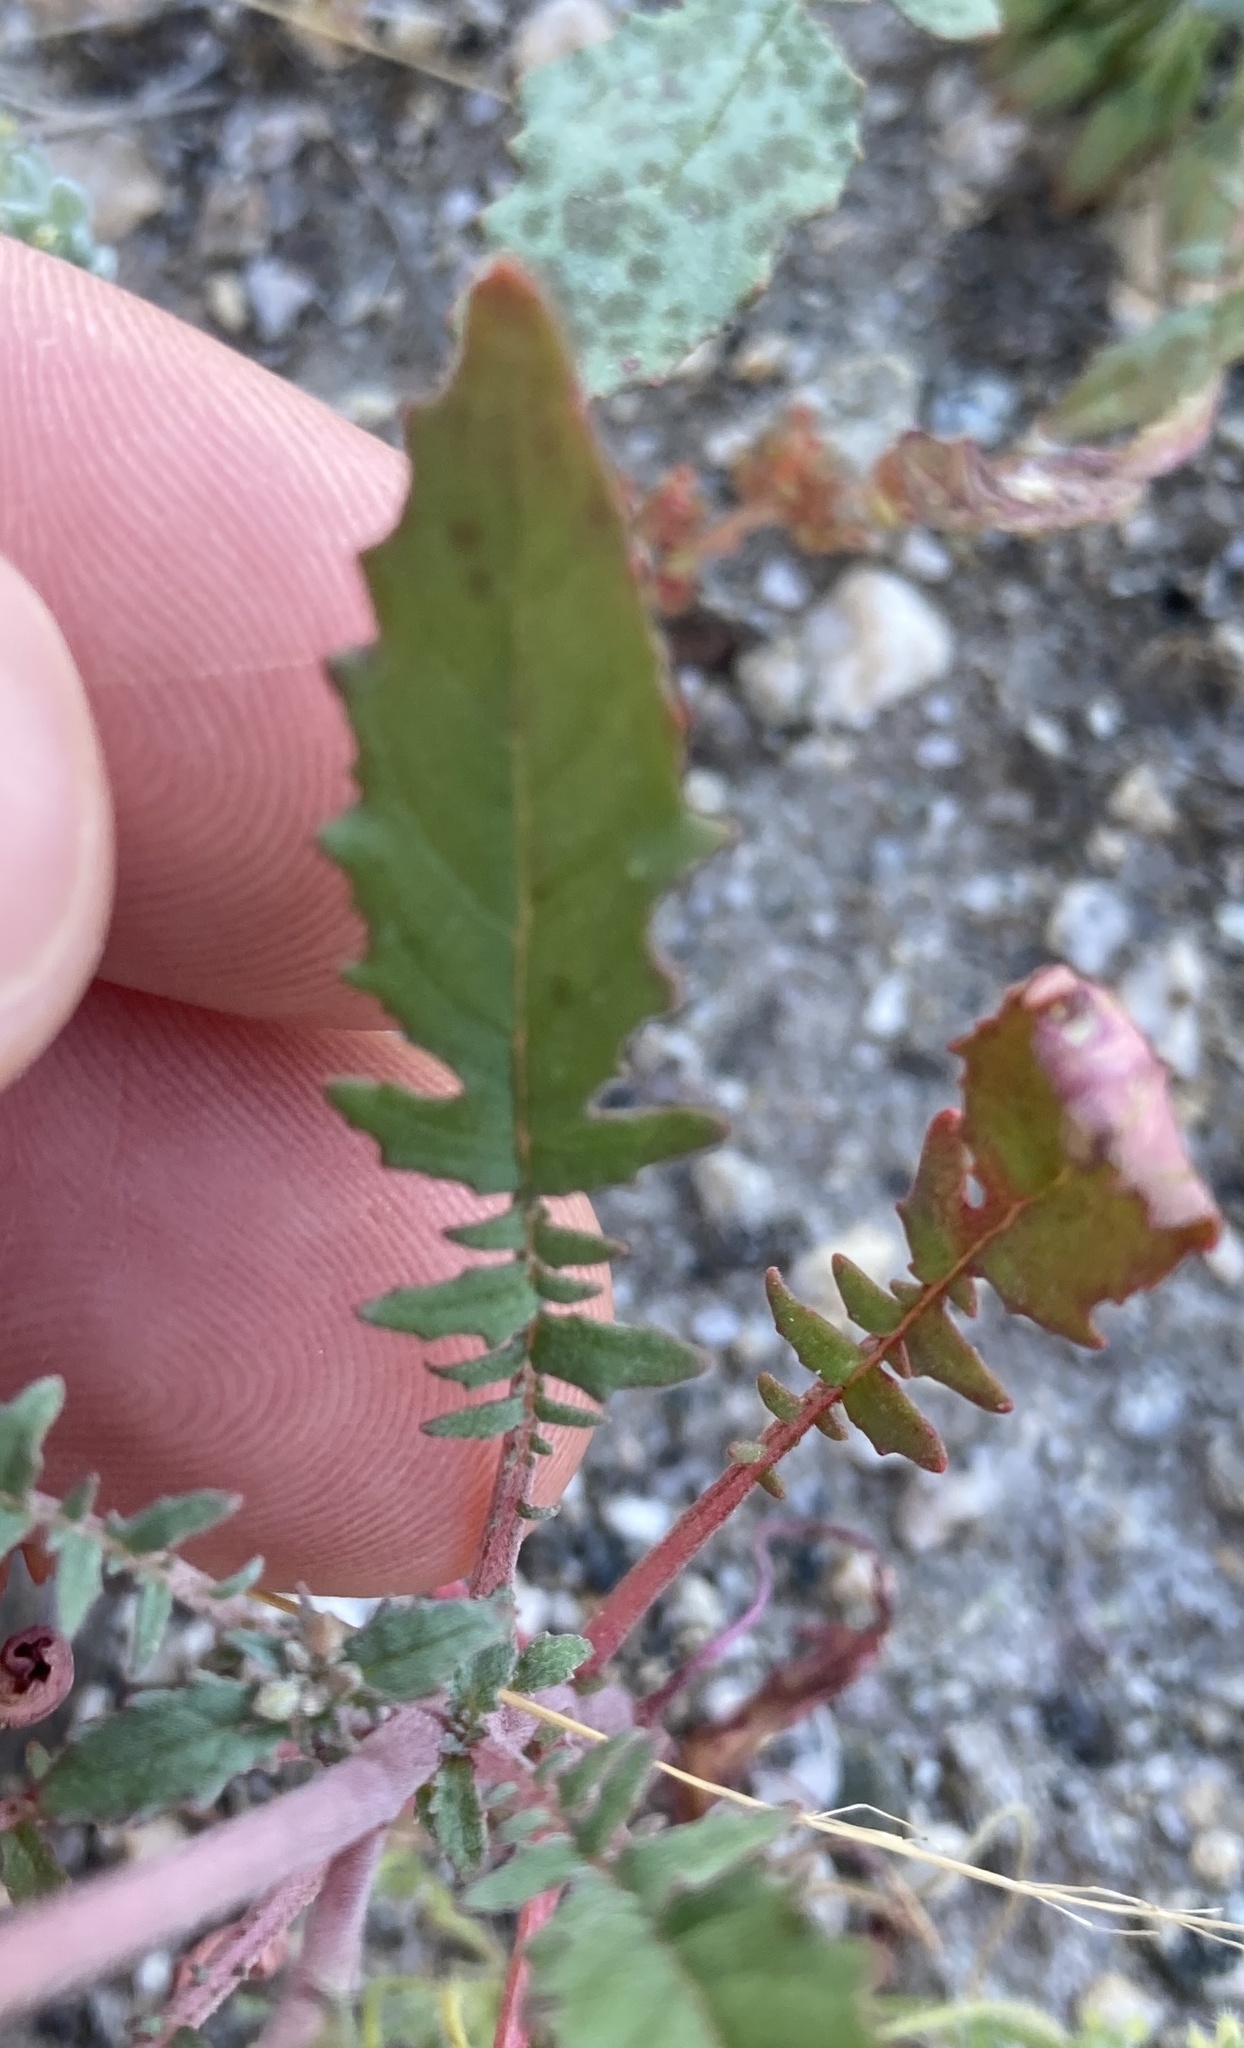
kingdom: Plantae
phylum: Tracheophyta
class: Magnoliopsida
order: Myrtales
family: Onagraceae
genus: Chylismia
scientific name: Chylismia claviformis
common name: Browneyes
